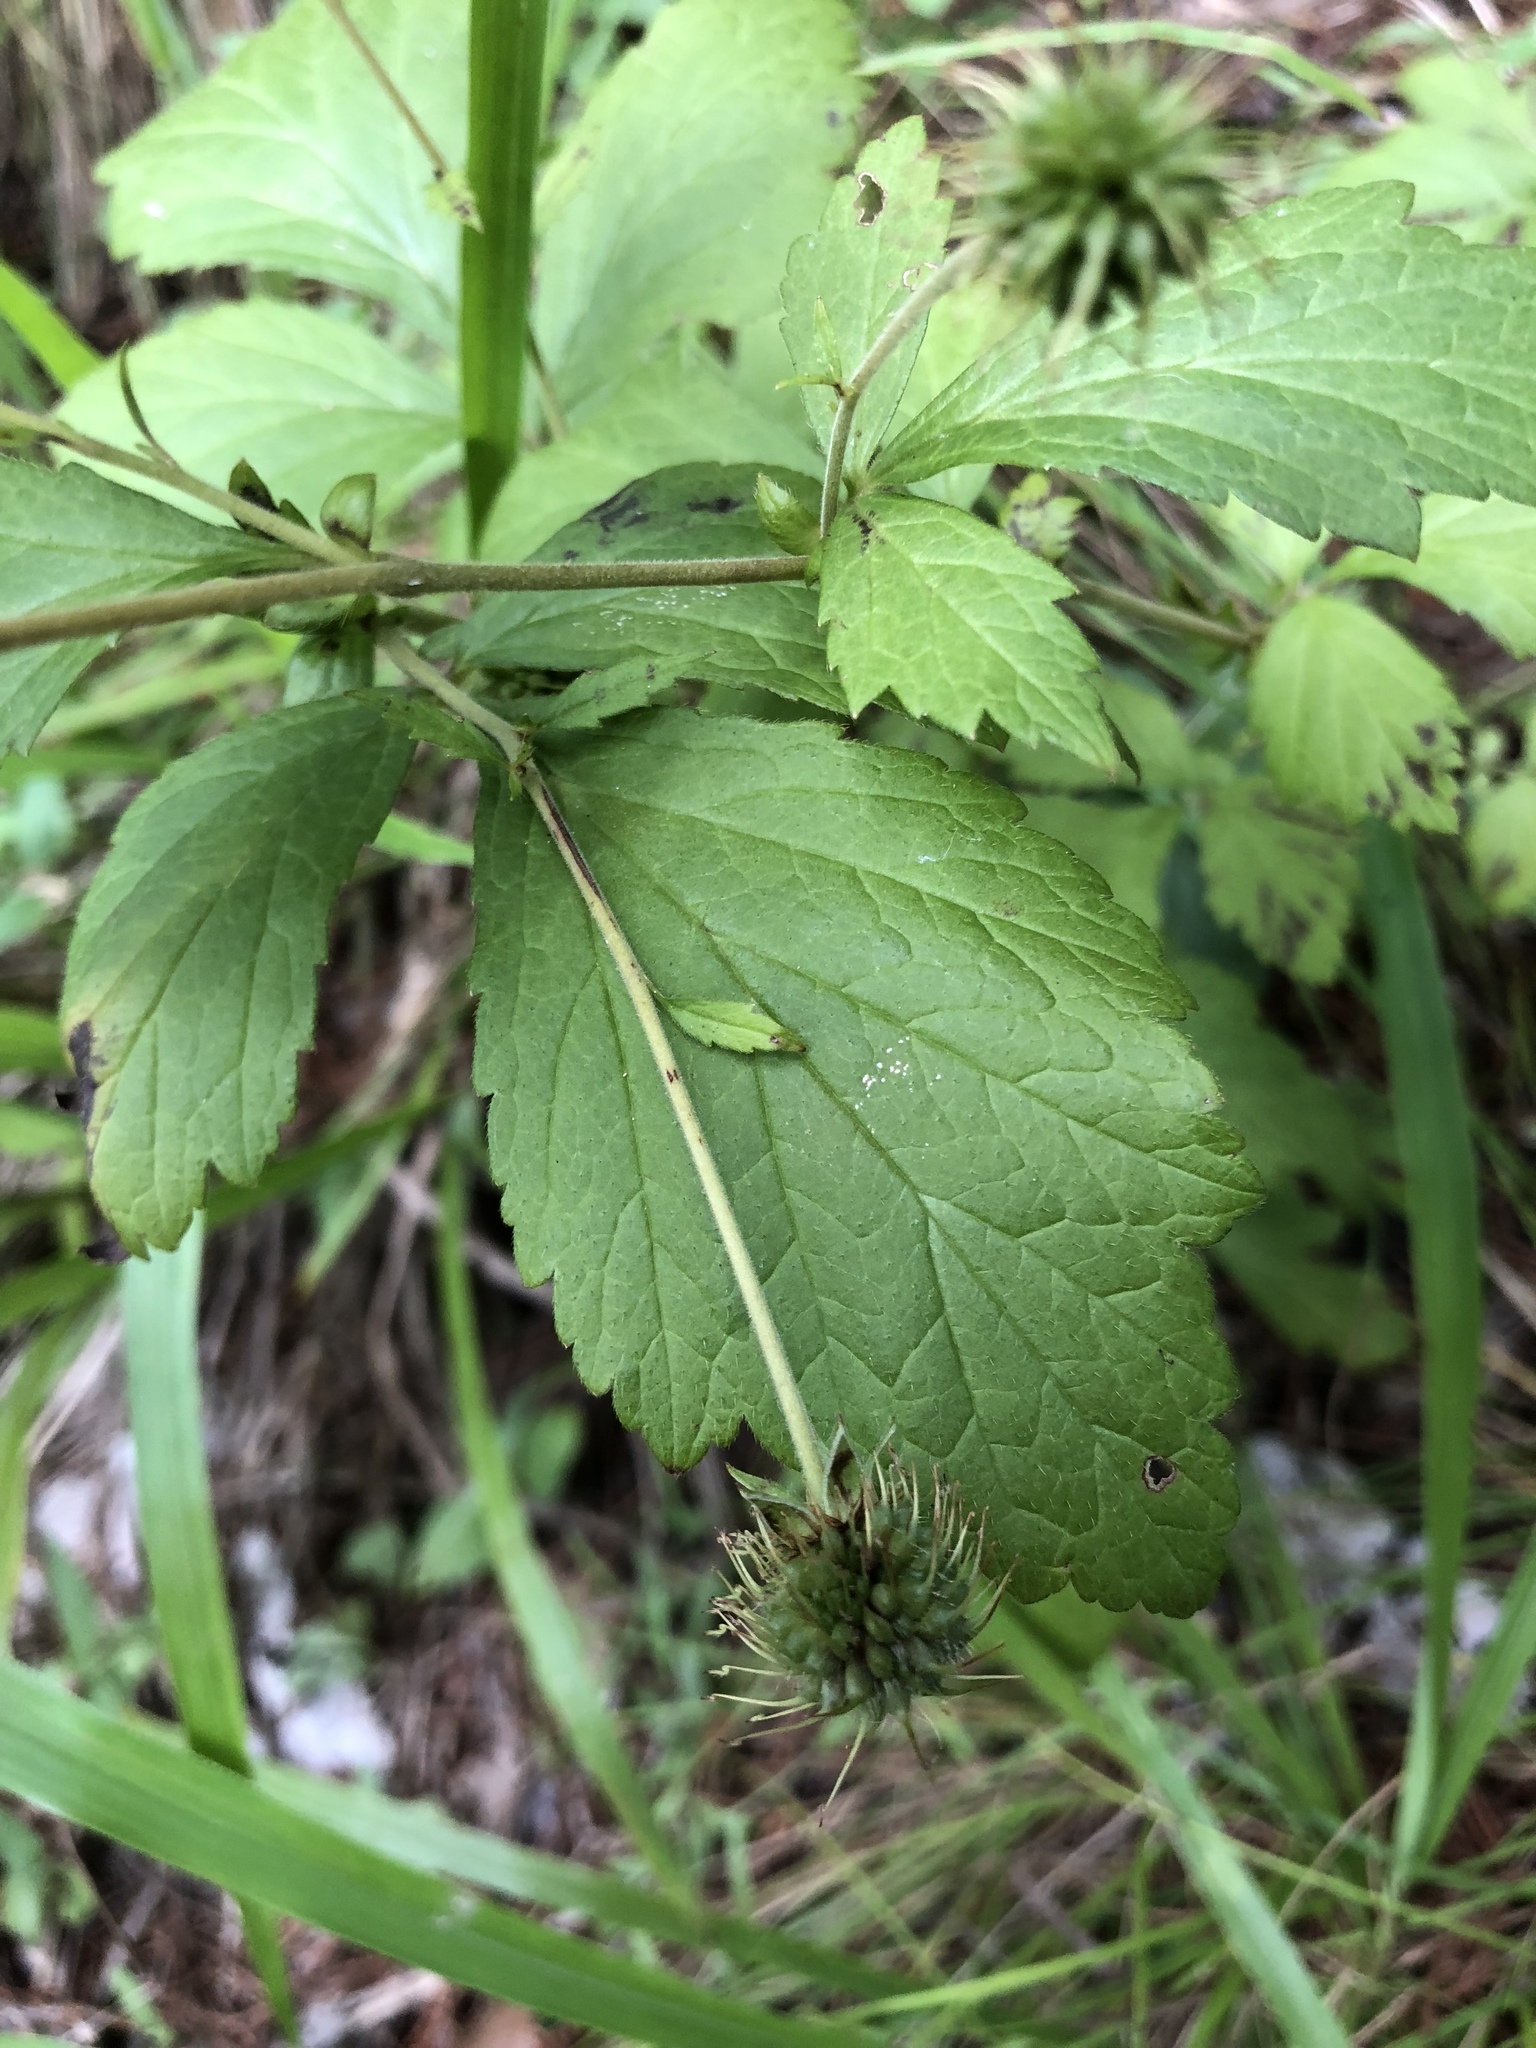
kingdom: Plantae
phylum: Tracheophyta
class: Magnoliopsida
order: Rosales
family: Rosaceae
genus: Geum
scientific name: Geum canadense
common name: White avens
